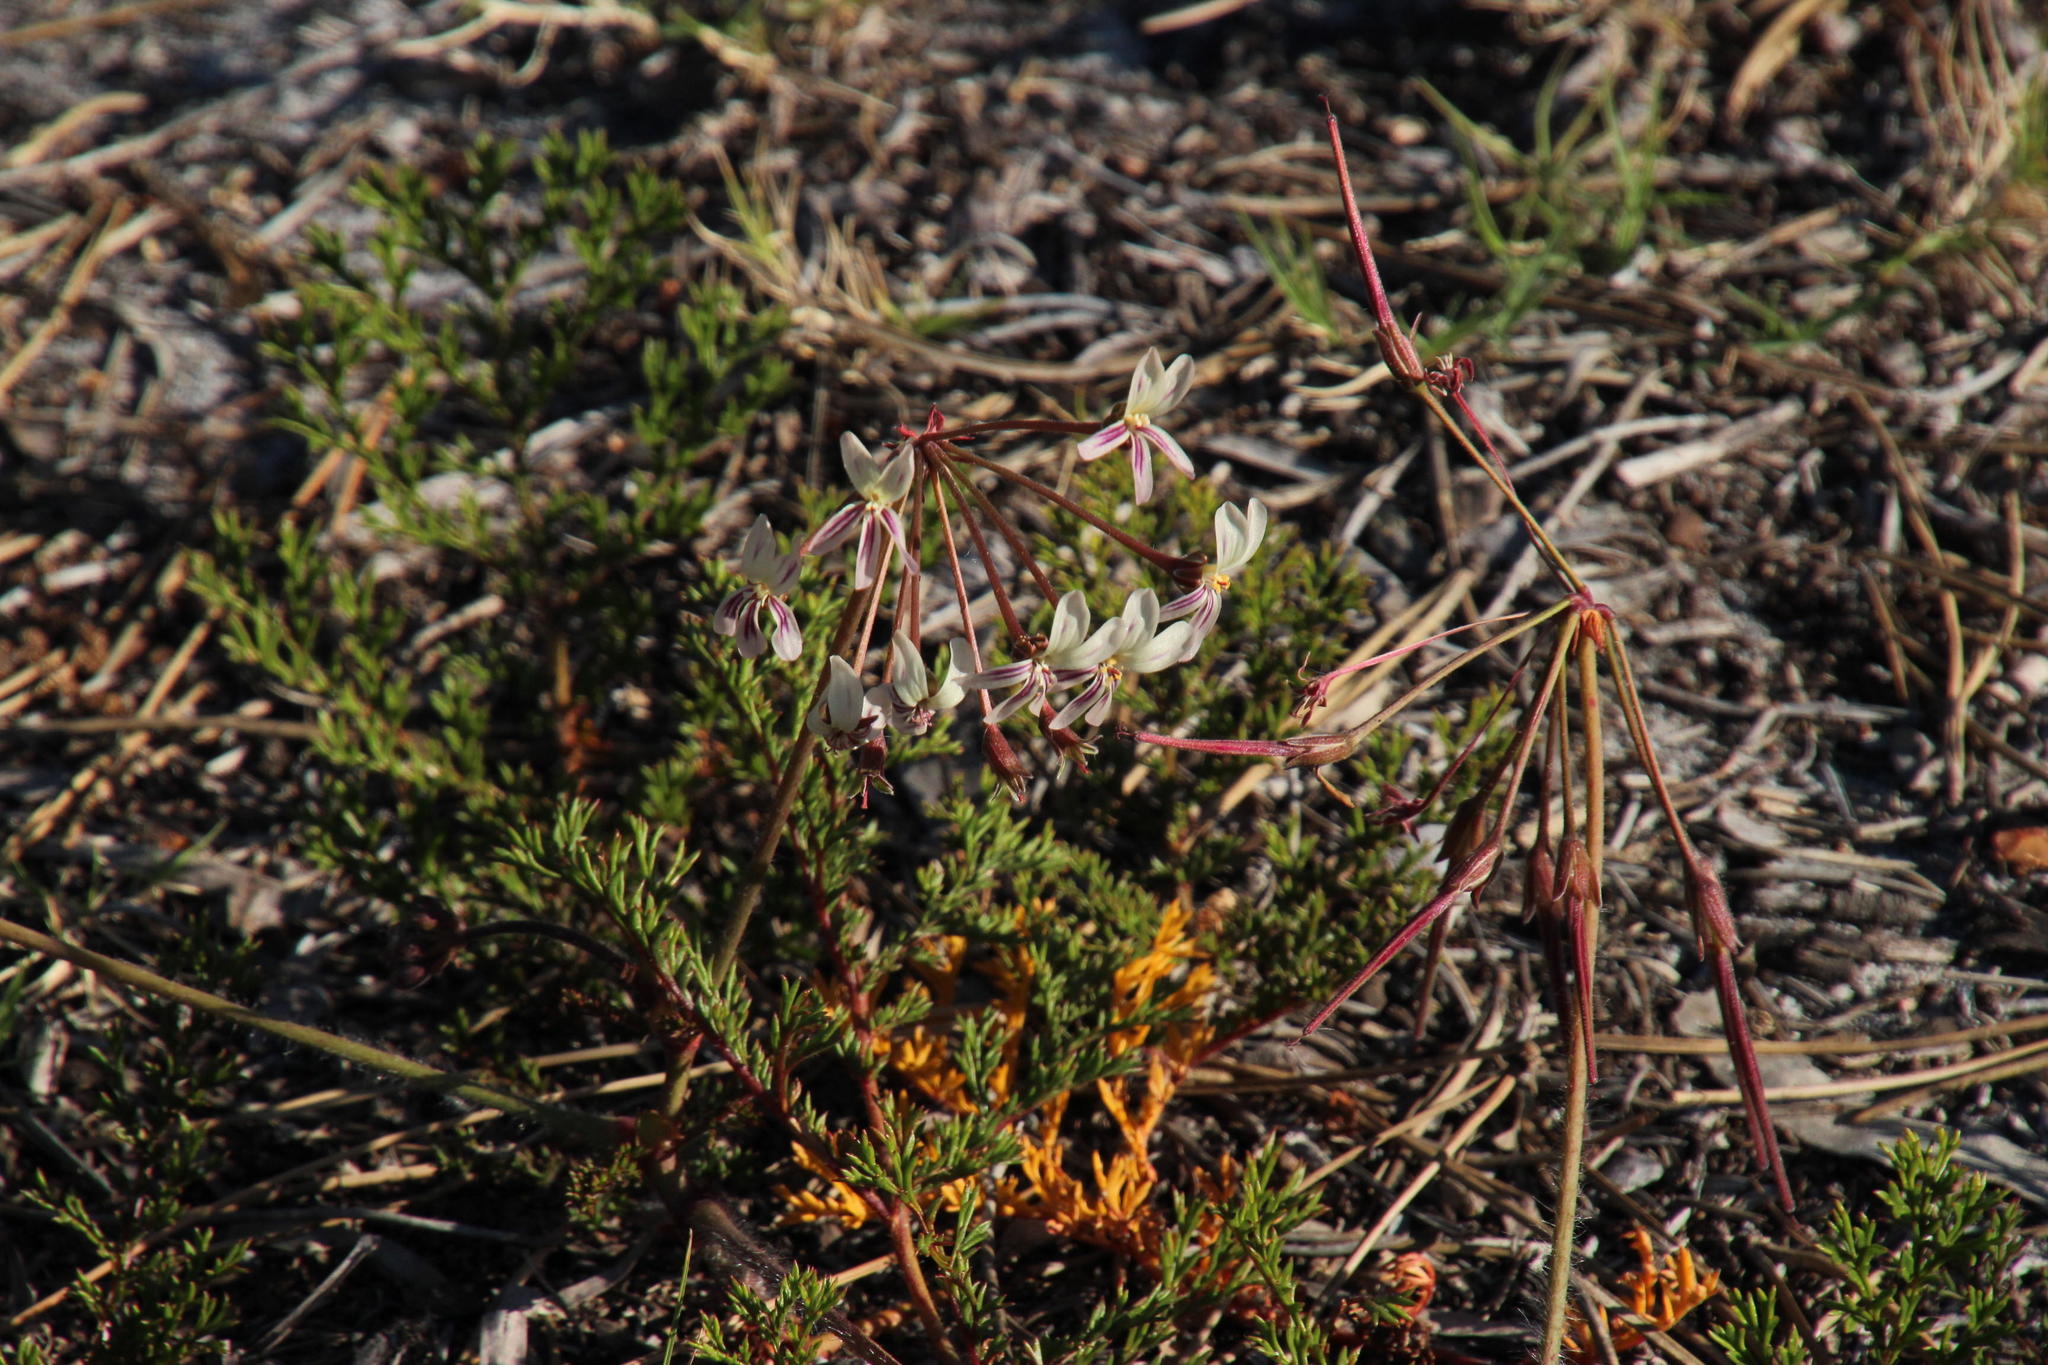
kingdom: Plantae
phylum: Tracheophyta
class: Magnoliopsida
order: Geraniales
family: Geraniaceae
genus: Pelargonium
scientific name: Pelargonium triste
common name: Night-scent pelargonium
